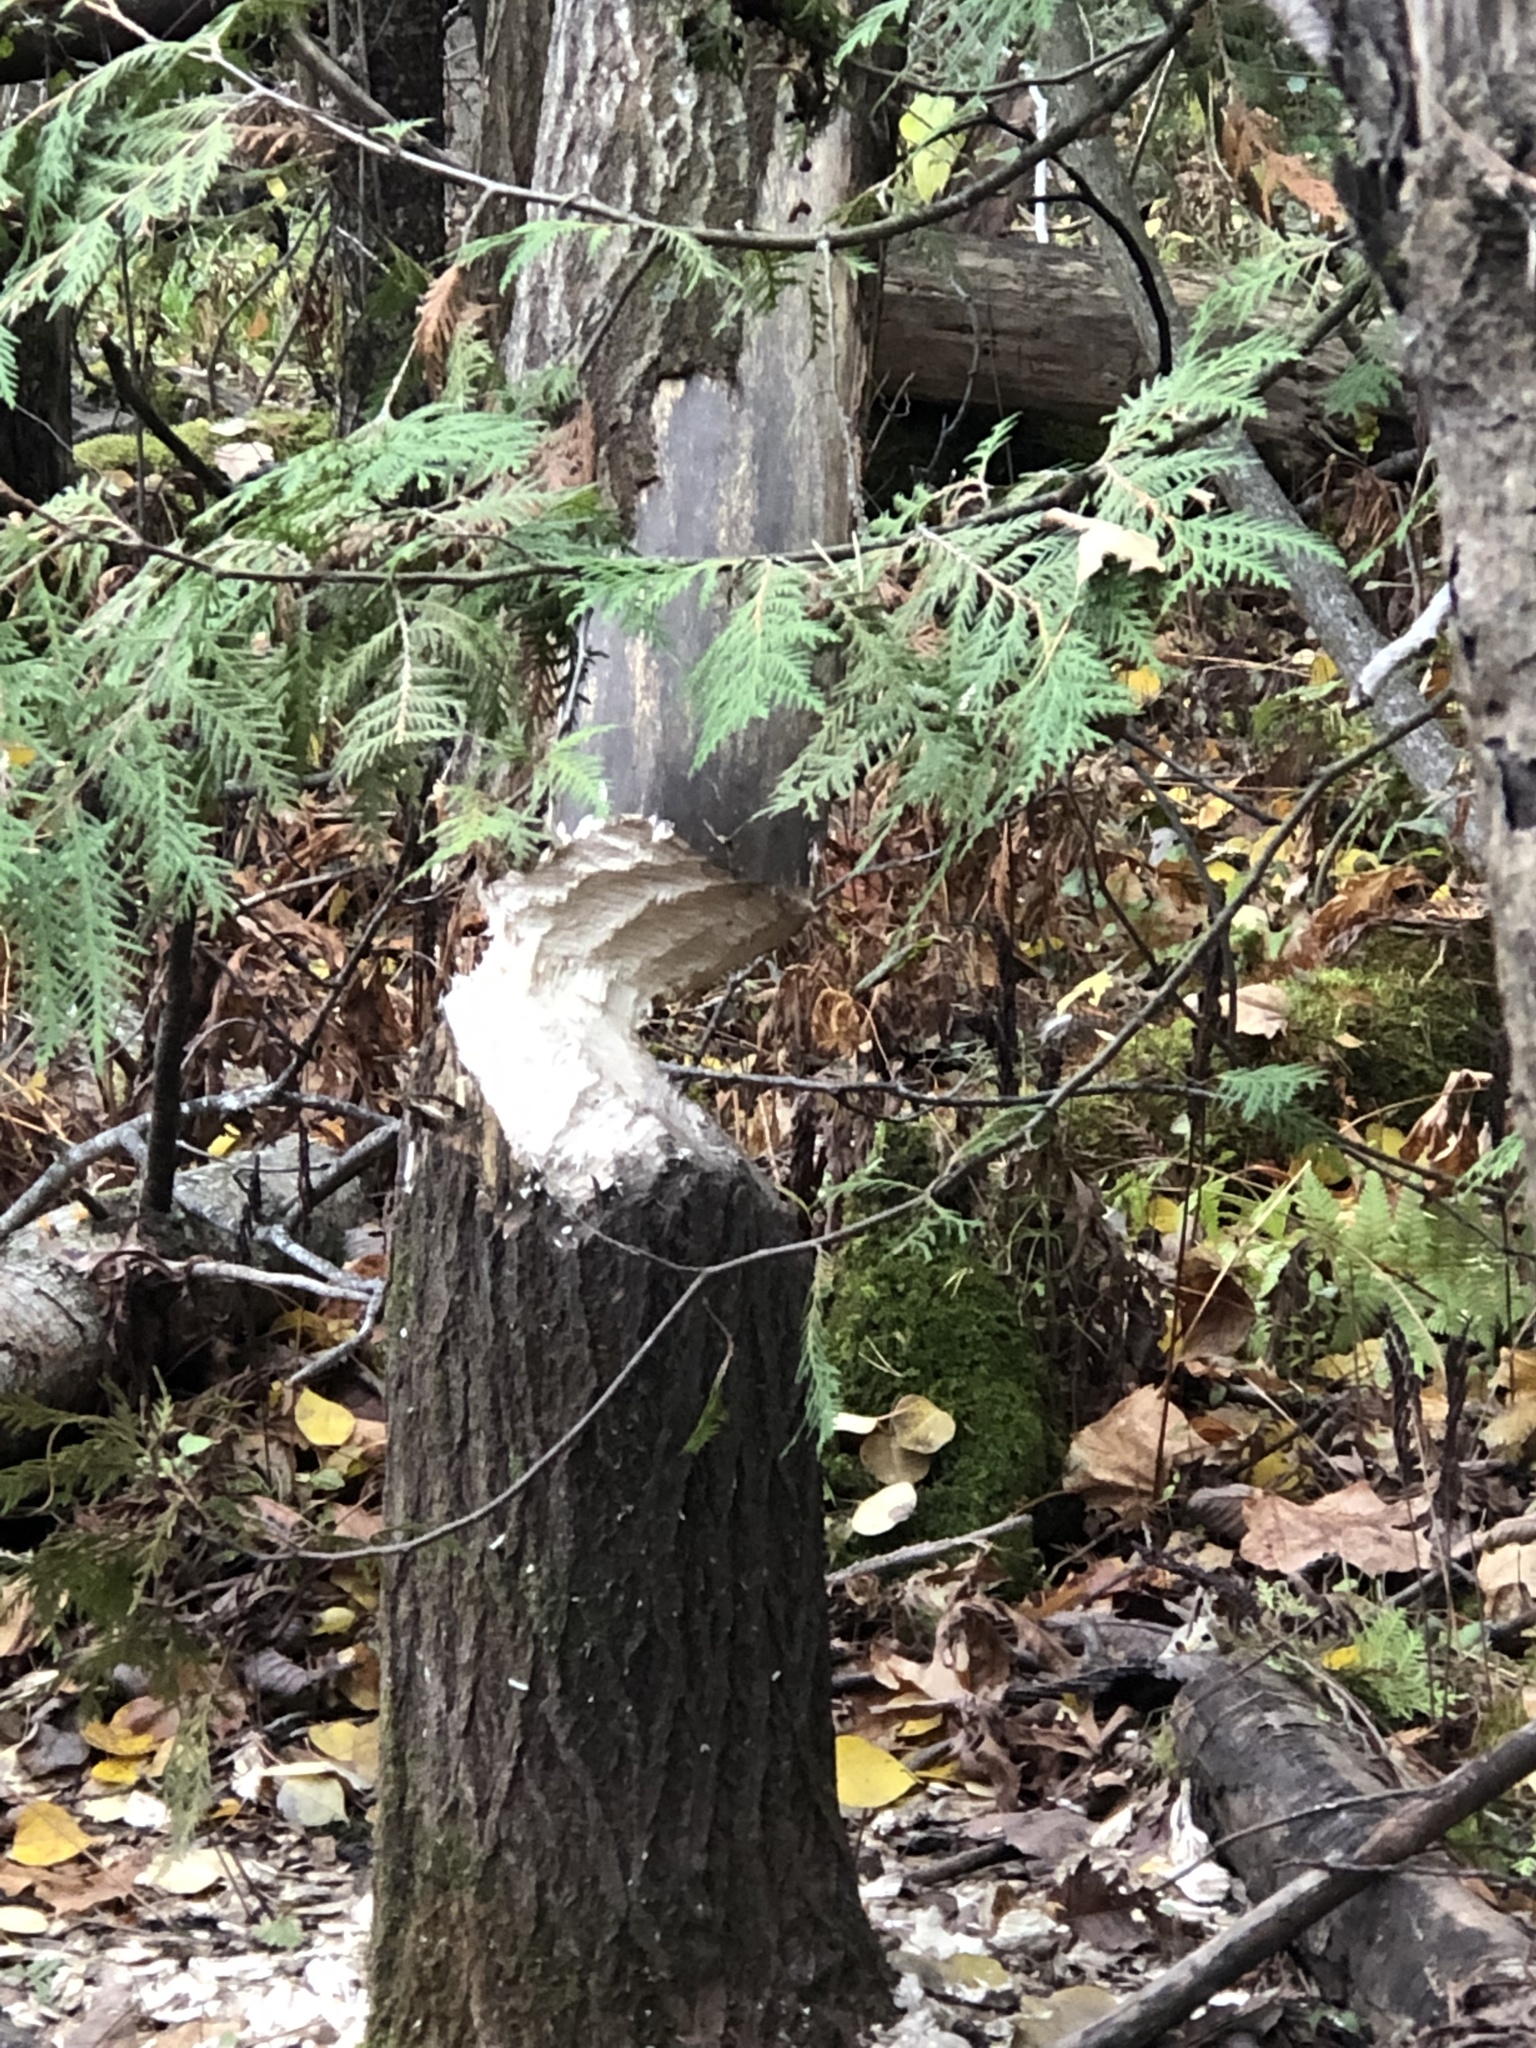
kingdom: Animalia
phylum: Chordata
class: Mammalia
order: Rodentia
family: Castoridae
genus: Castor
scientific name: Castor canadensis
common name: American beaver
